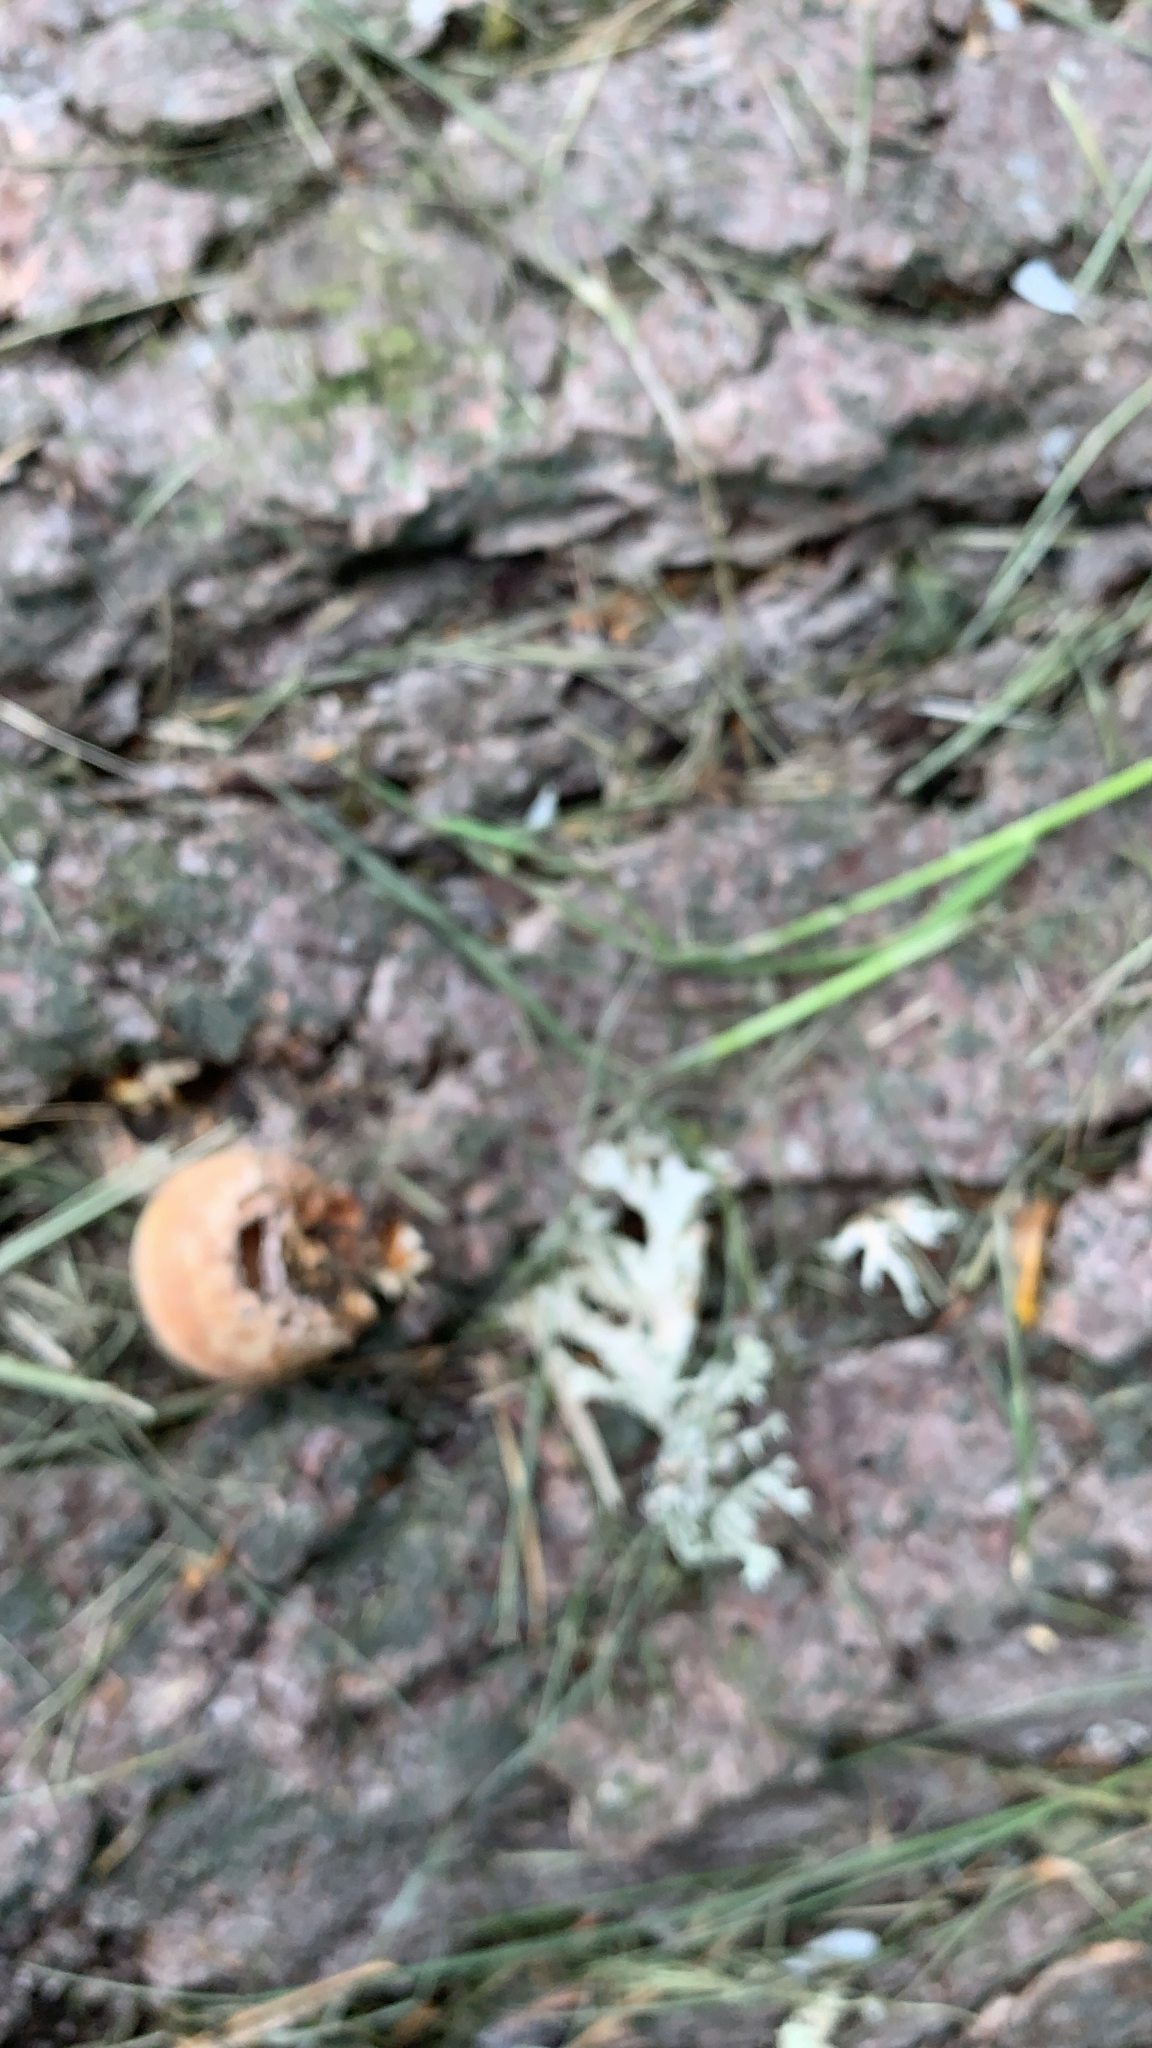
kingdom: Fungi
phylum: Basidiomycota
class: Agaricomycetes
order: Polyporales
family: Polyporaceae
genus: Cryptoporus
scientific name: Cryptoporus volvatus
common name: Veiled polypore
